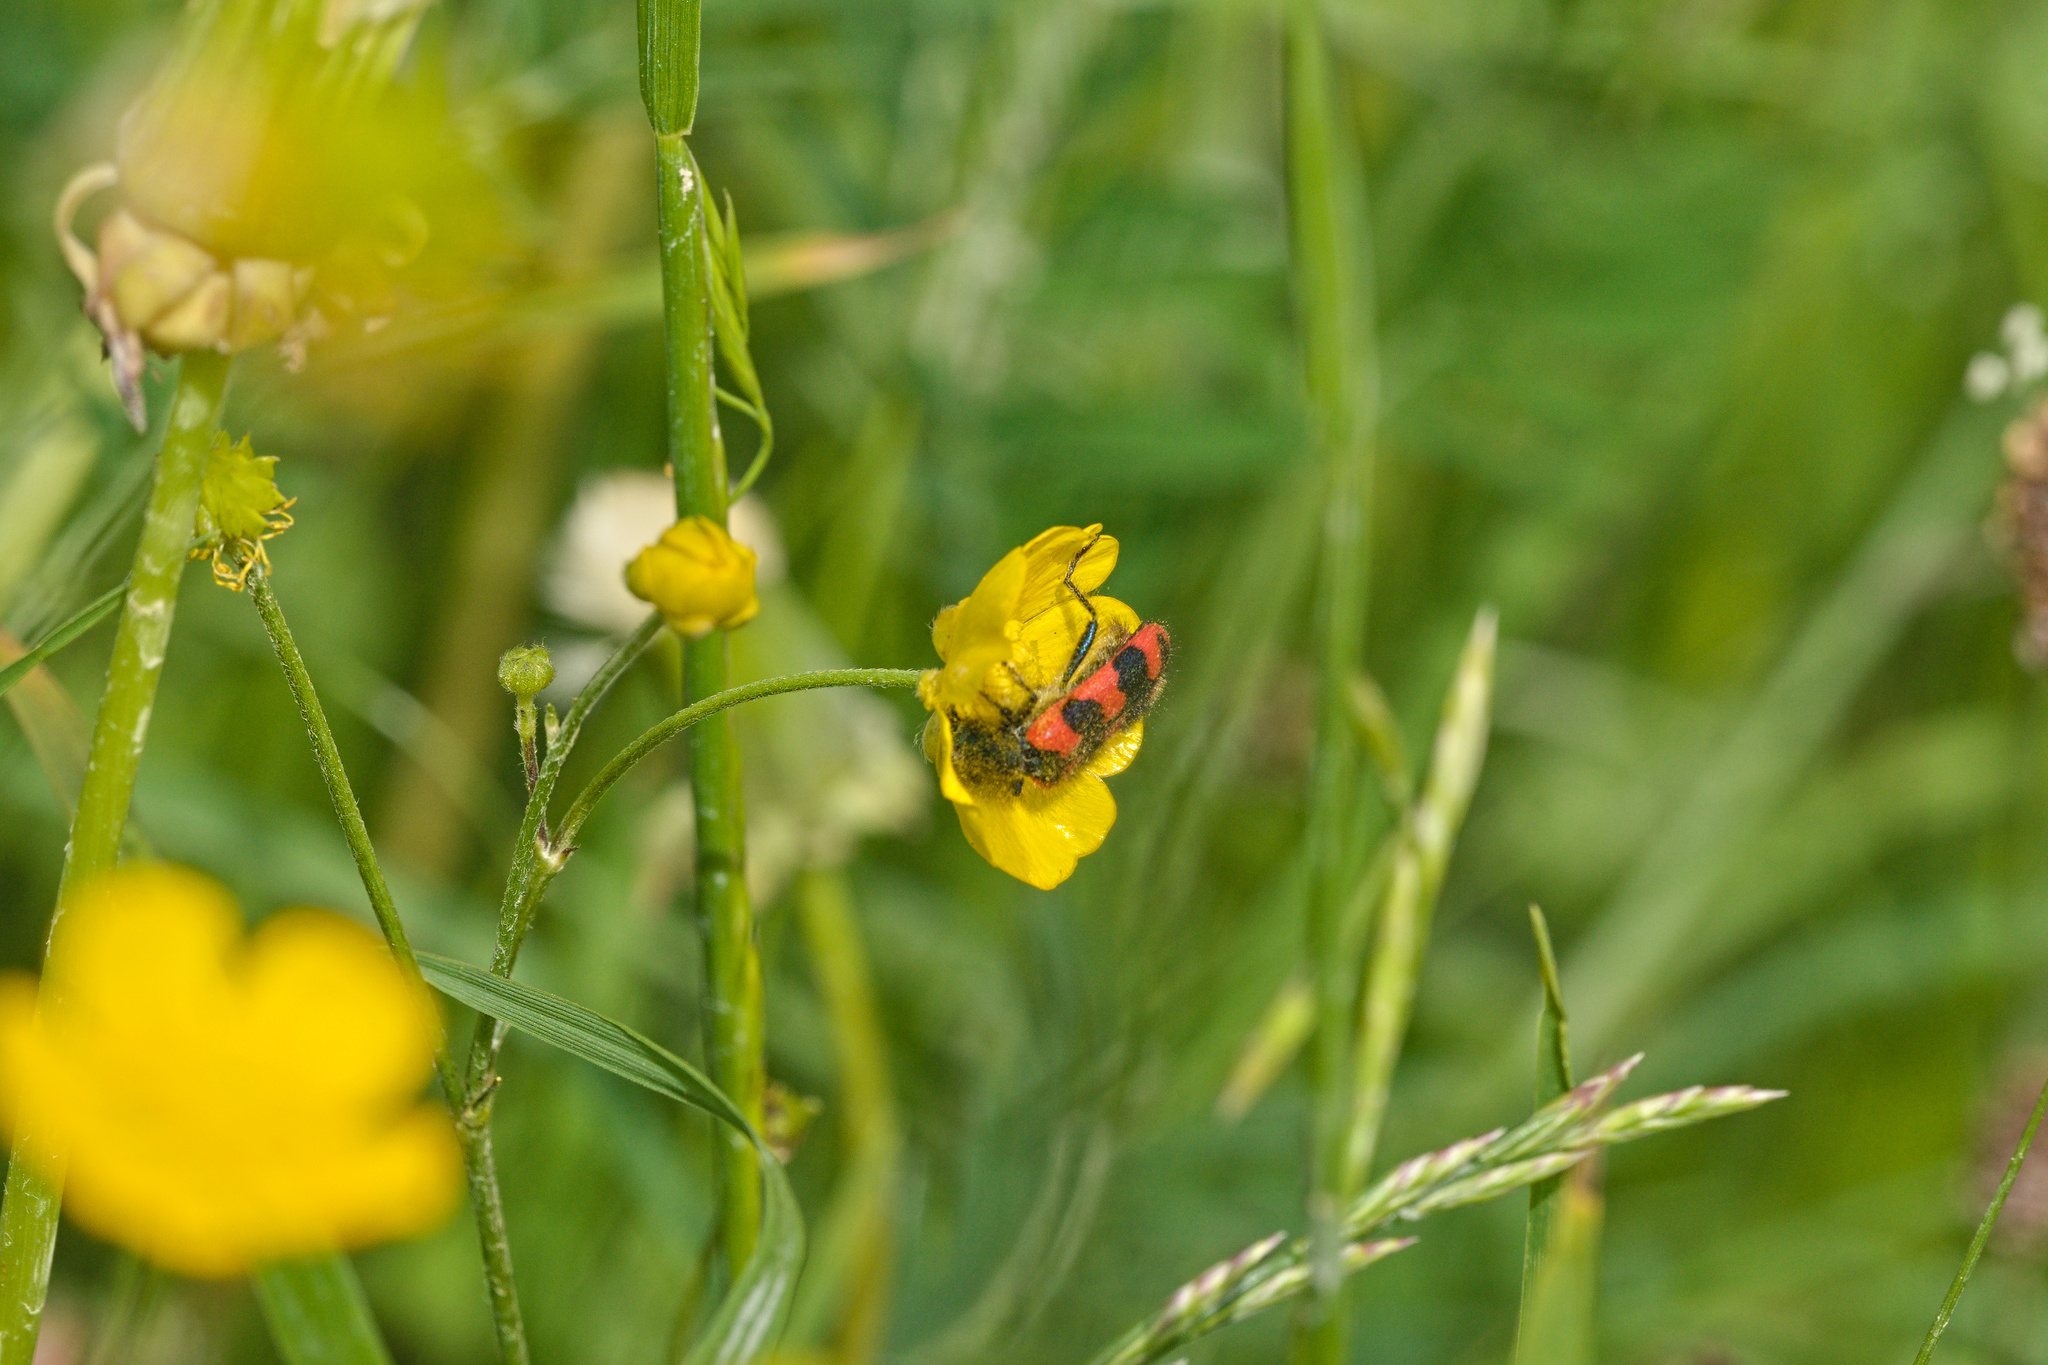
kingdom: Animalia
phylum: Arthropoda
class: Insecta
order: Coleoptera
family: Cleridae
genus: Trichodes
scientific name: Trichodes alvearius
